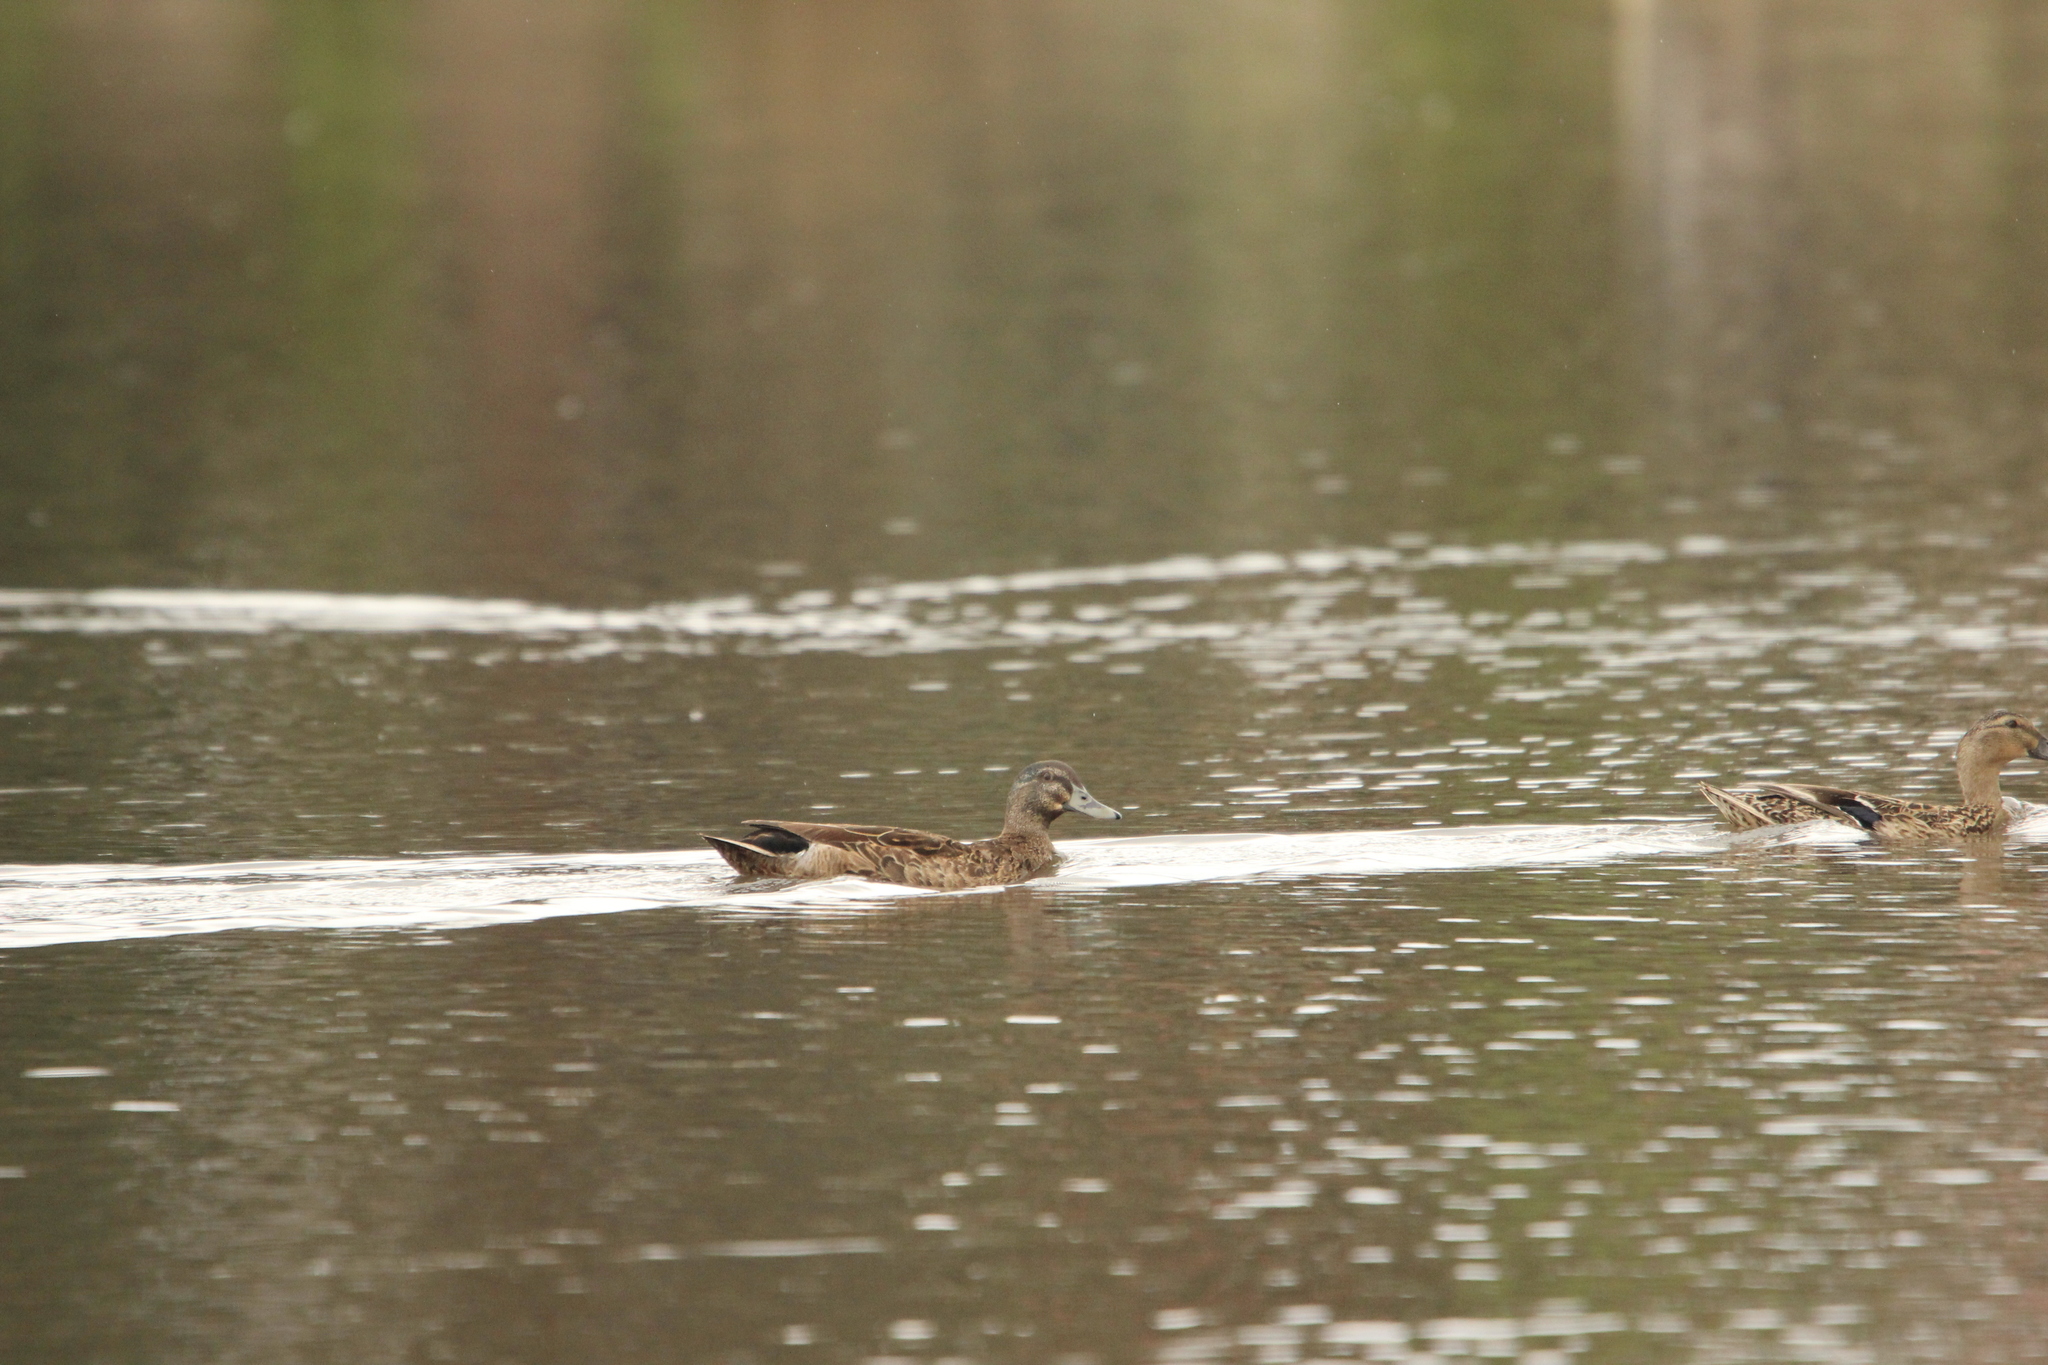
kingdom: Animalia
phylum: Chordata
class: Aves
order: Anseriformes
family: Anatidae
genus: Anas
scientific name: Anas
